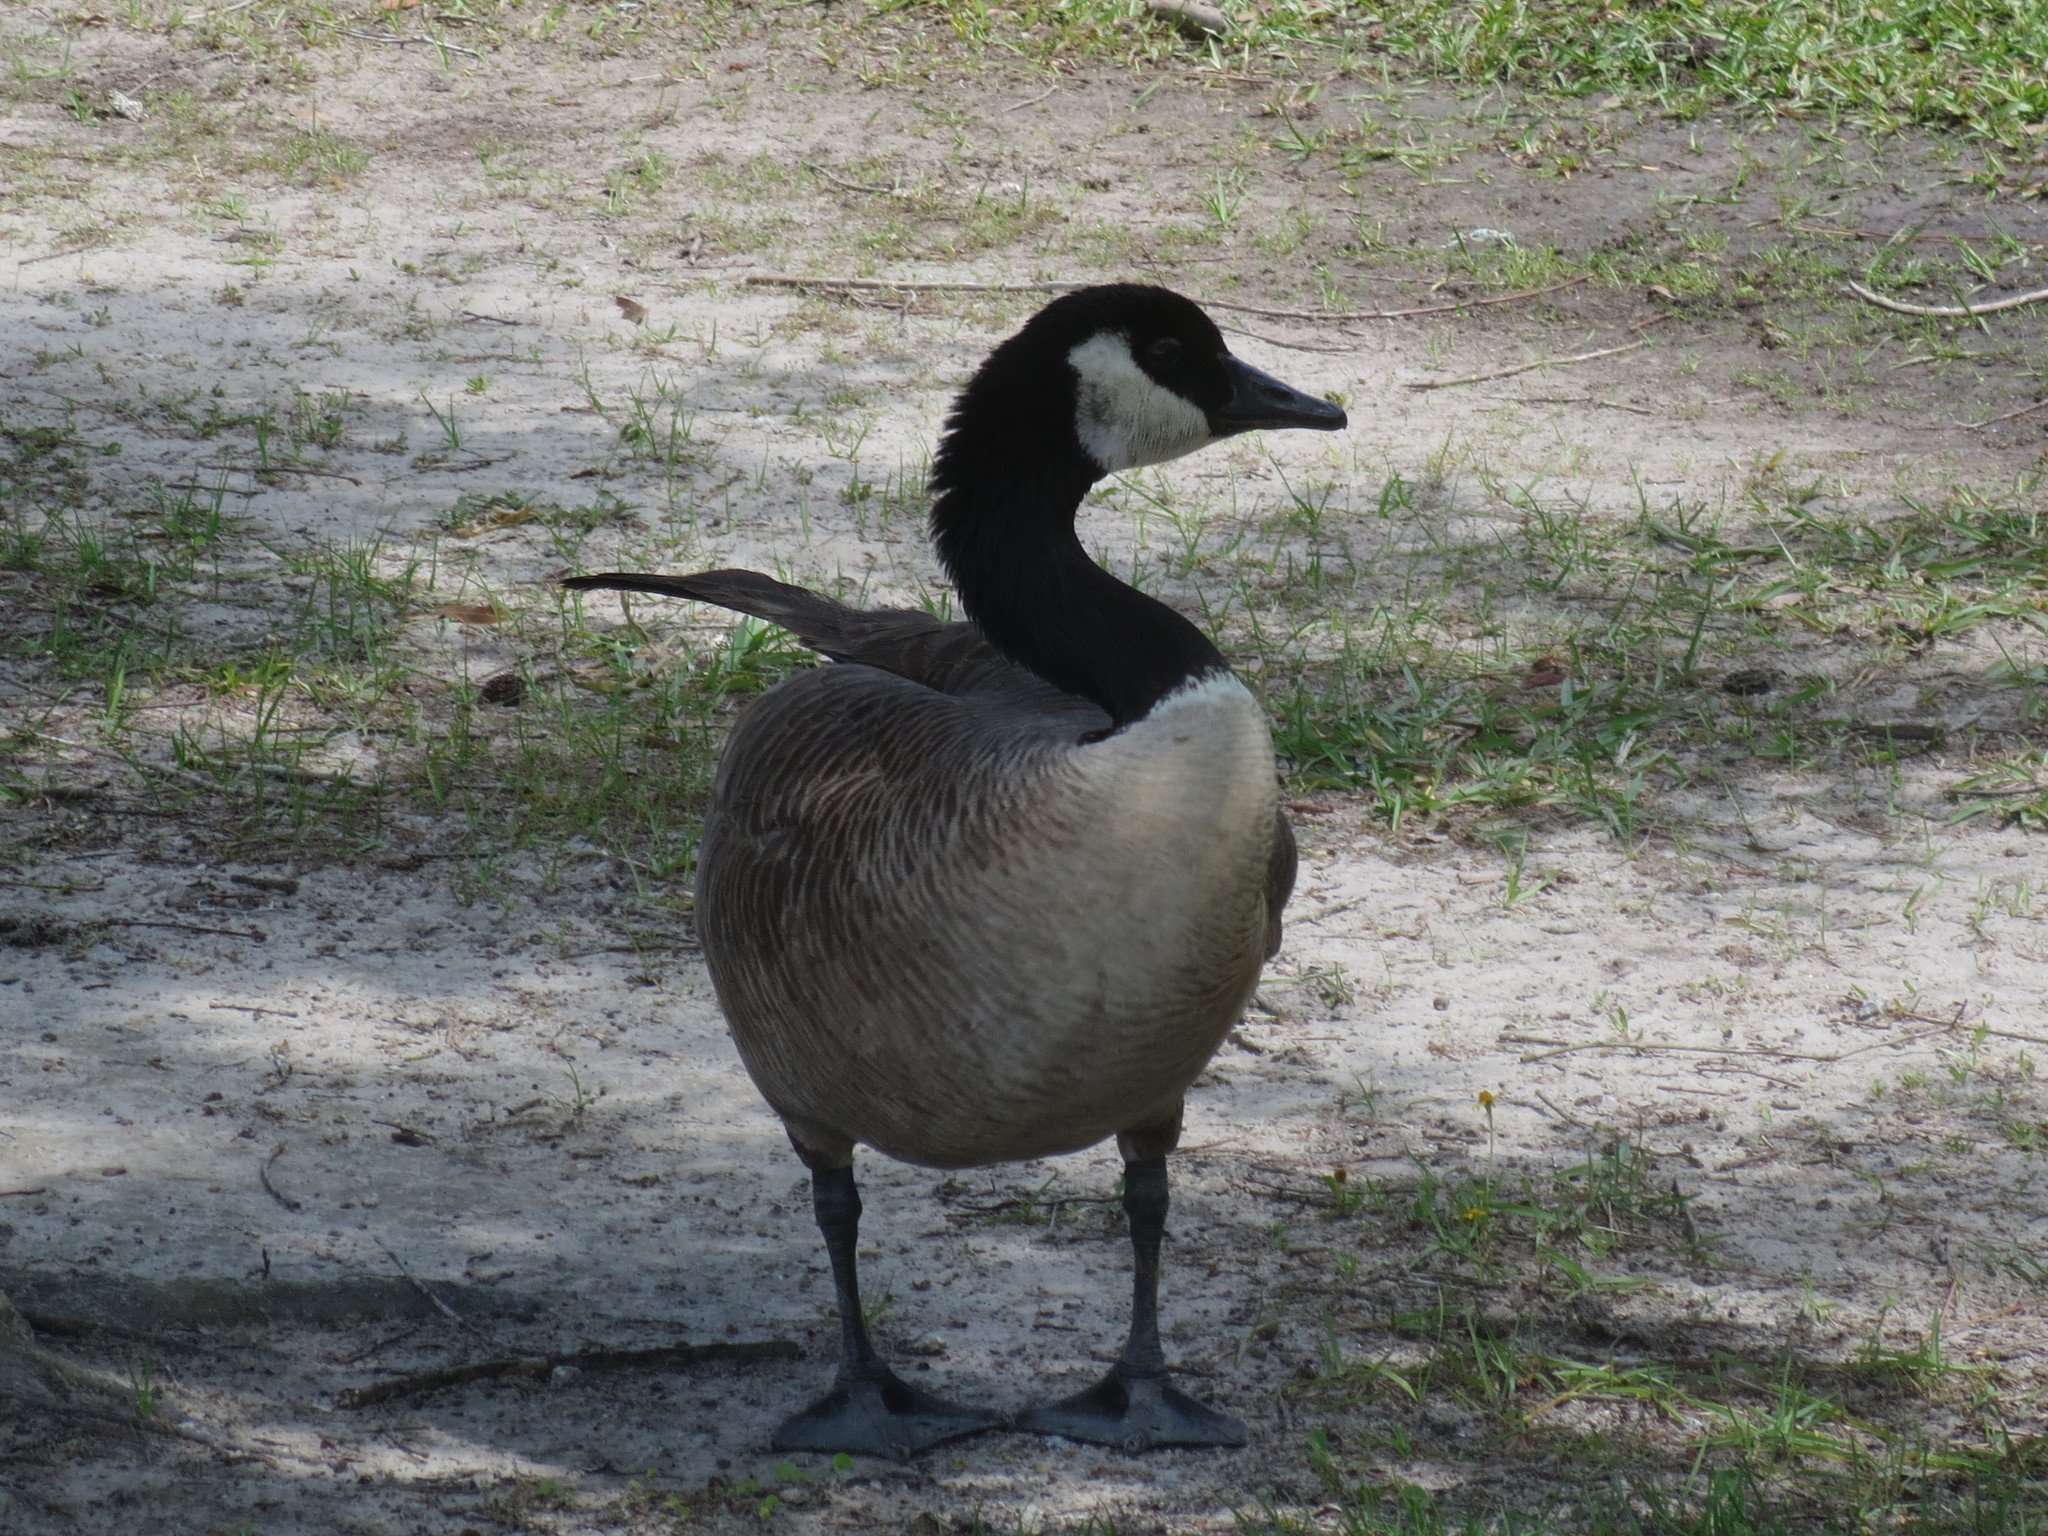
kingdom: Animalia
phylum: Chordata
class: Aves
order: Anseriformes
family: Anatidae
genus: Branta
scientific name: Branta canadensis
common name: Canada goose
